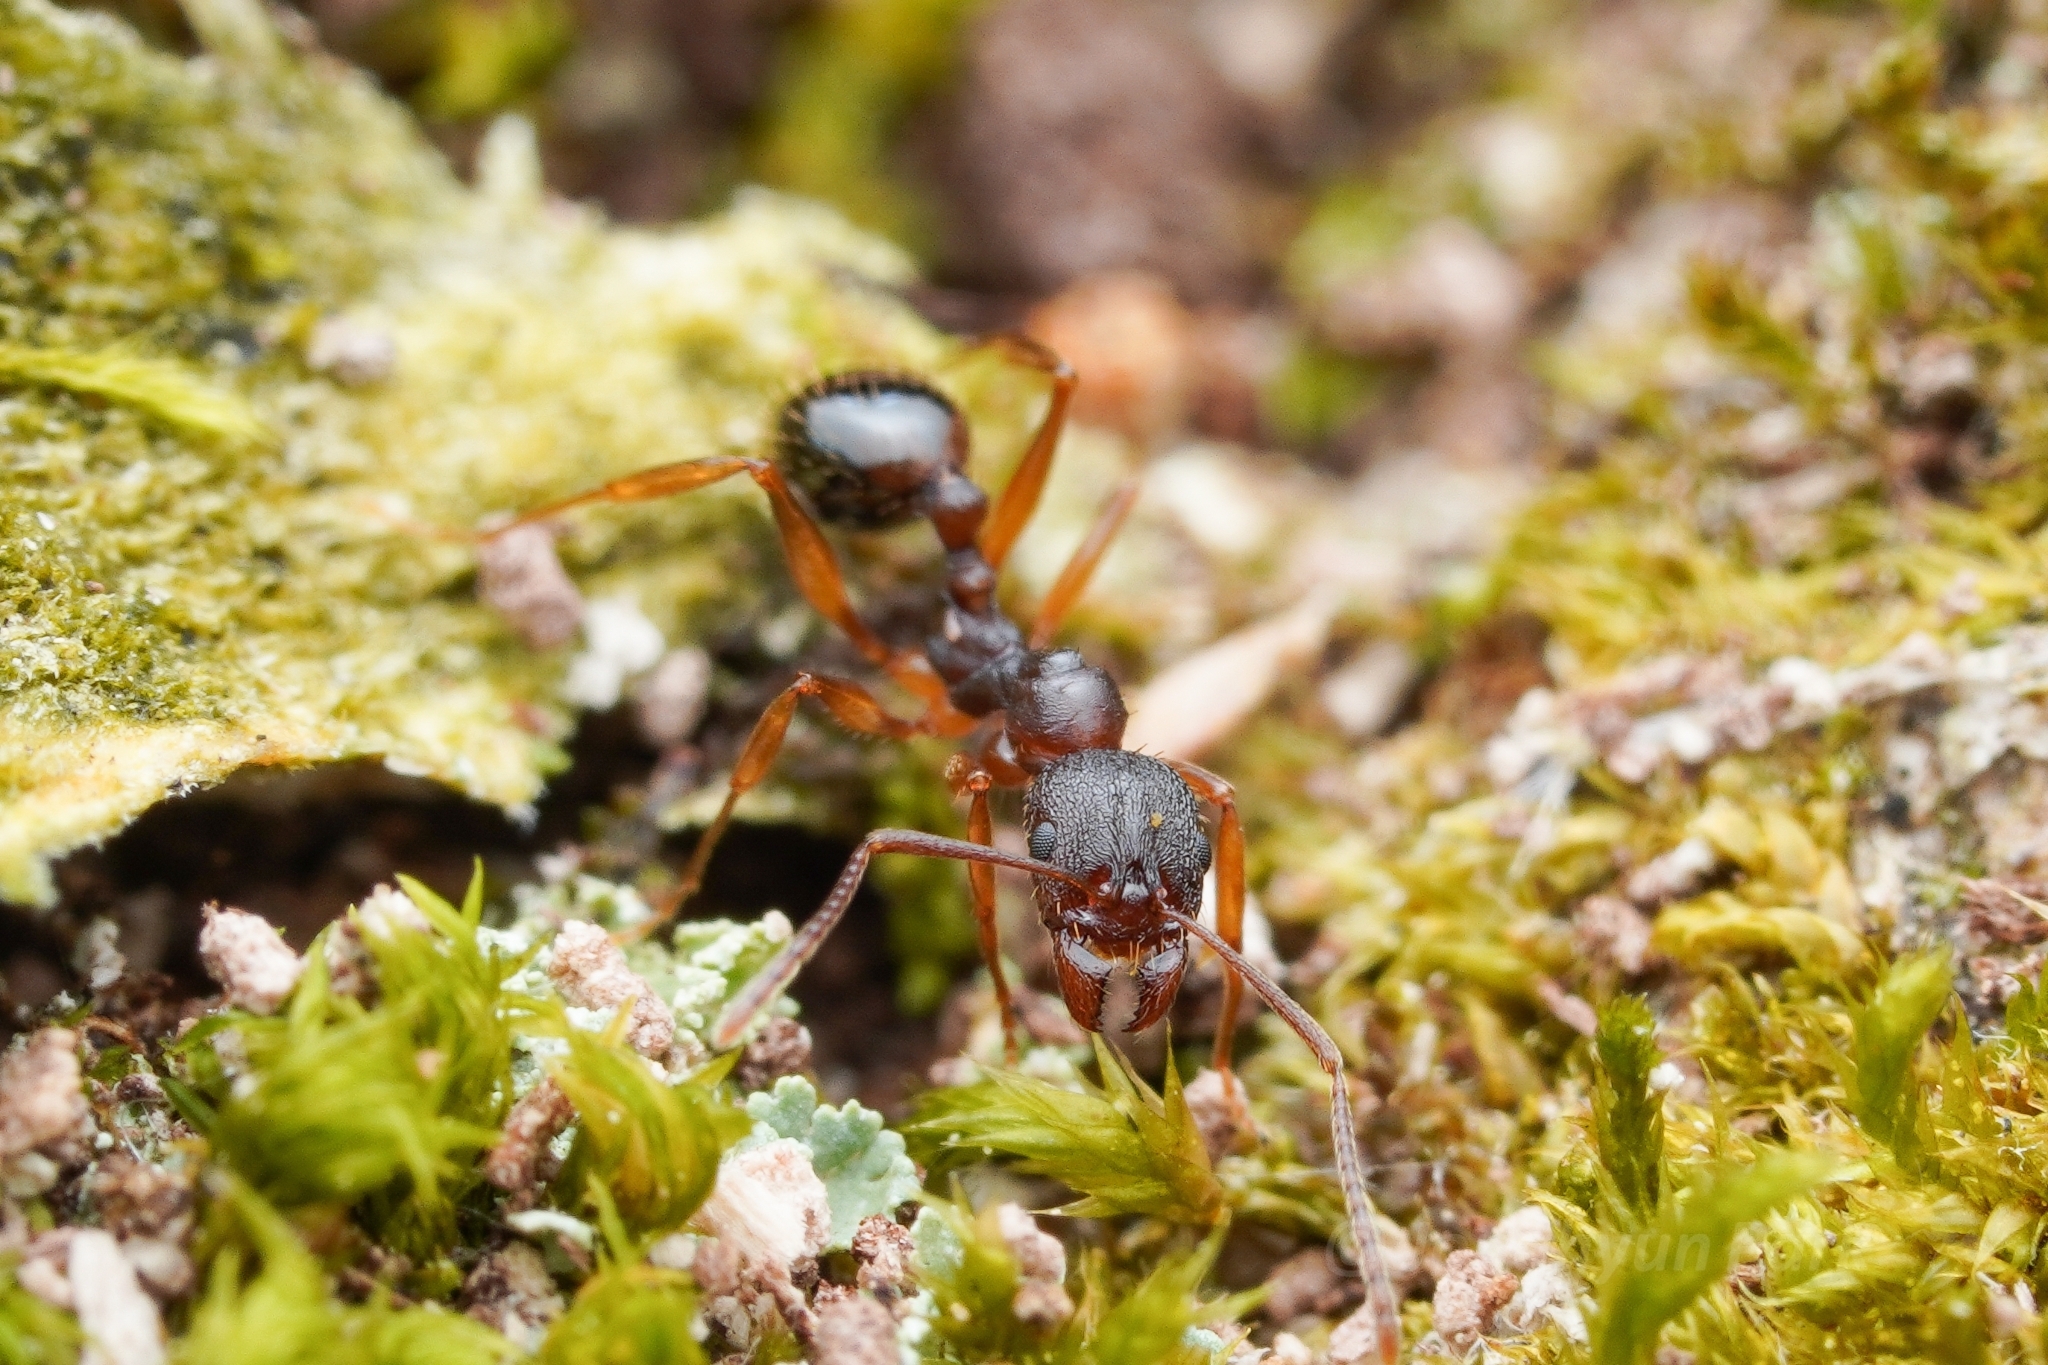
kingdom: Animalia
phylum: Arthropoda
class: Insecta
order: Hymenoptera
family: Formicidae
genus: Aphaenogaster
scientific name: Aphaenogaster rudis
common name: Winnow ant
